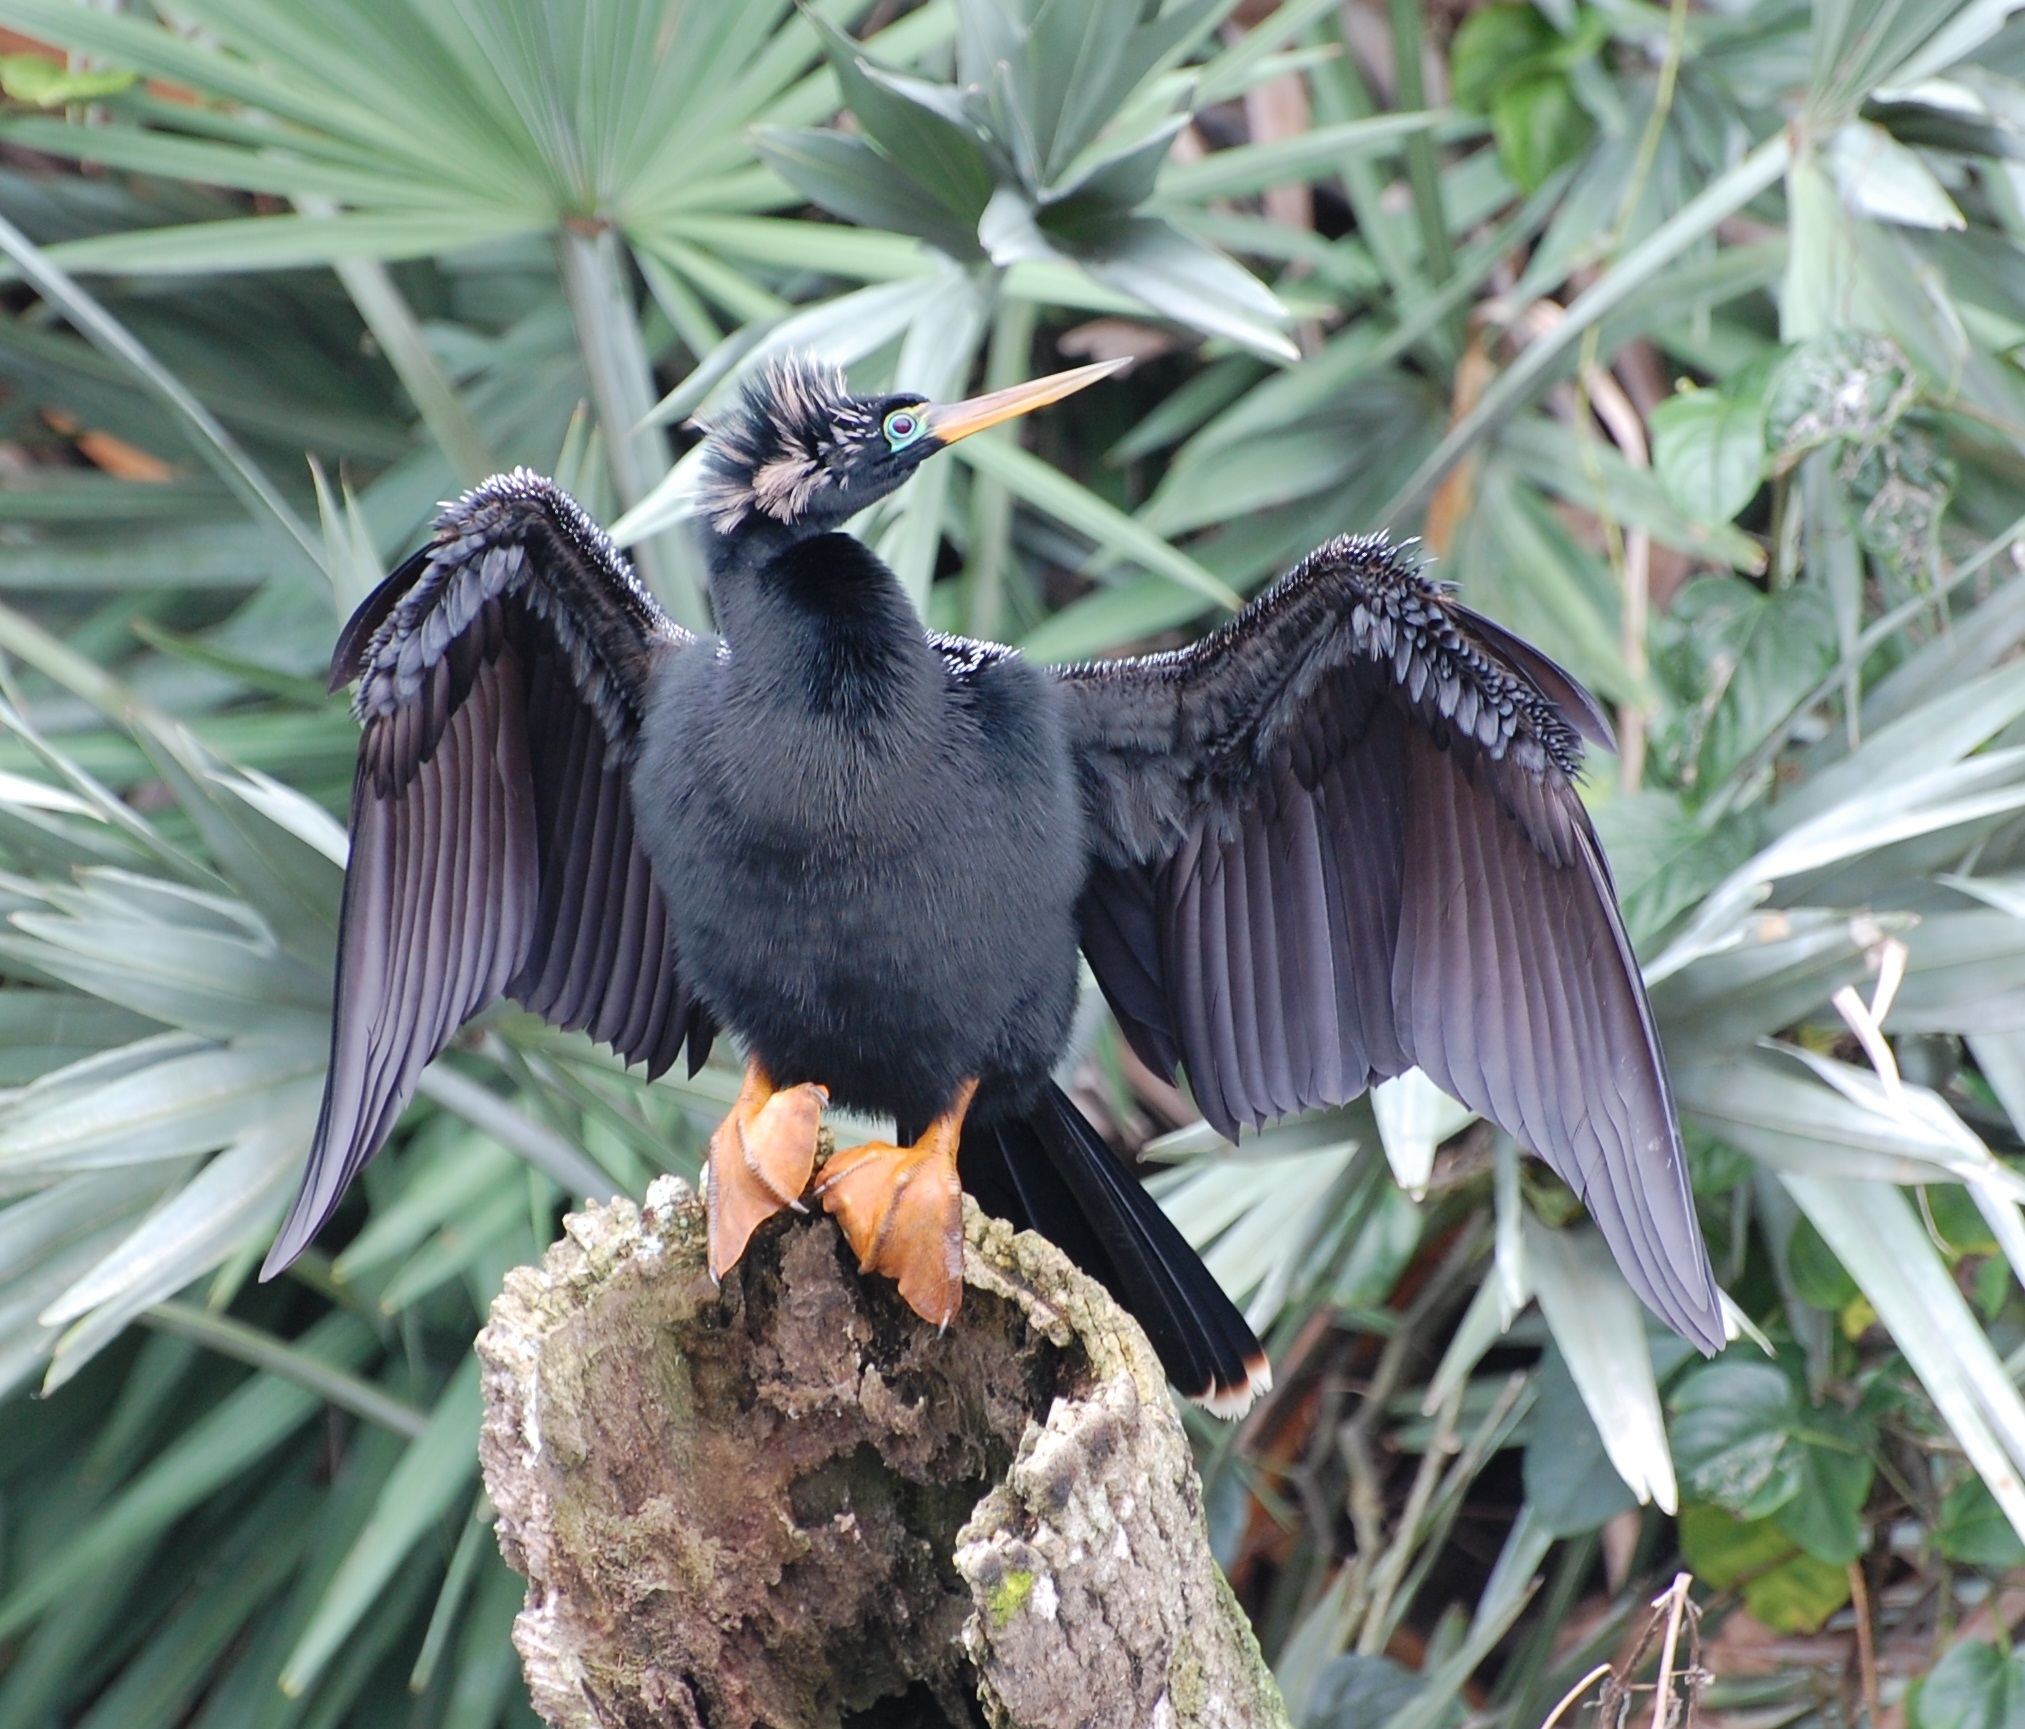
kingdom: Animalia
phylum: Chordata
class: Aves
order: Suliformes
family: Anhingidae
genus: Anhinga
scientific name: Anhinga anhinga
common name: Anhinga
